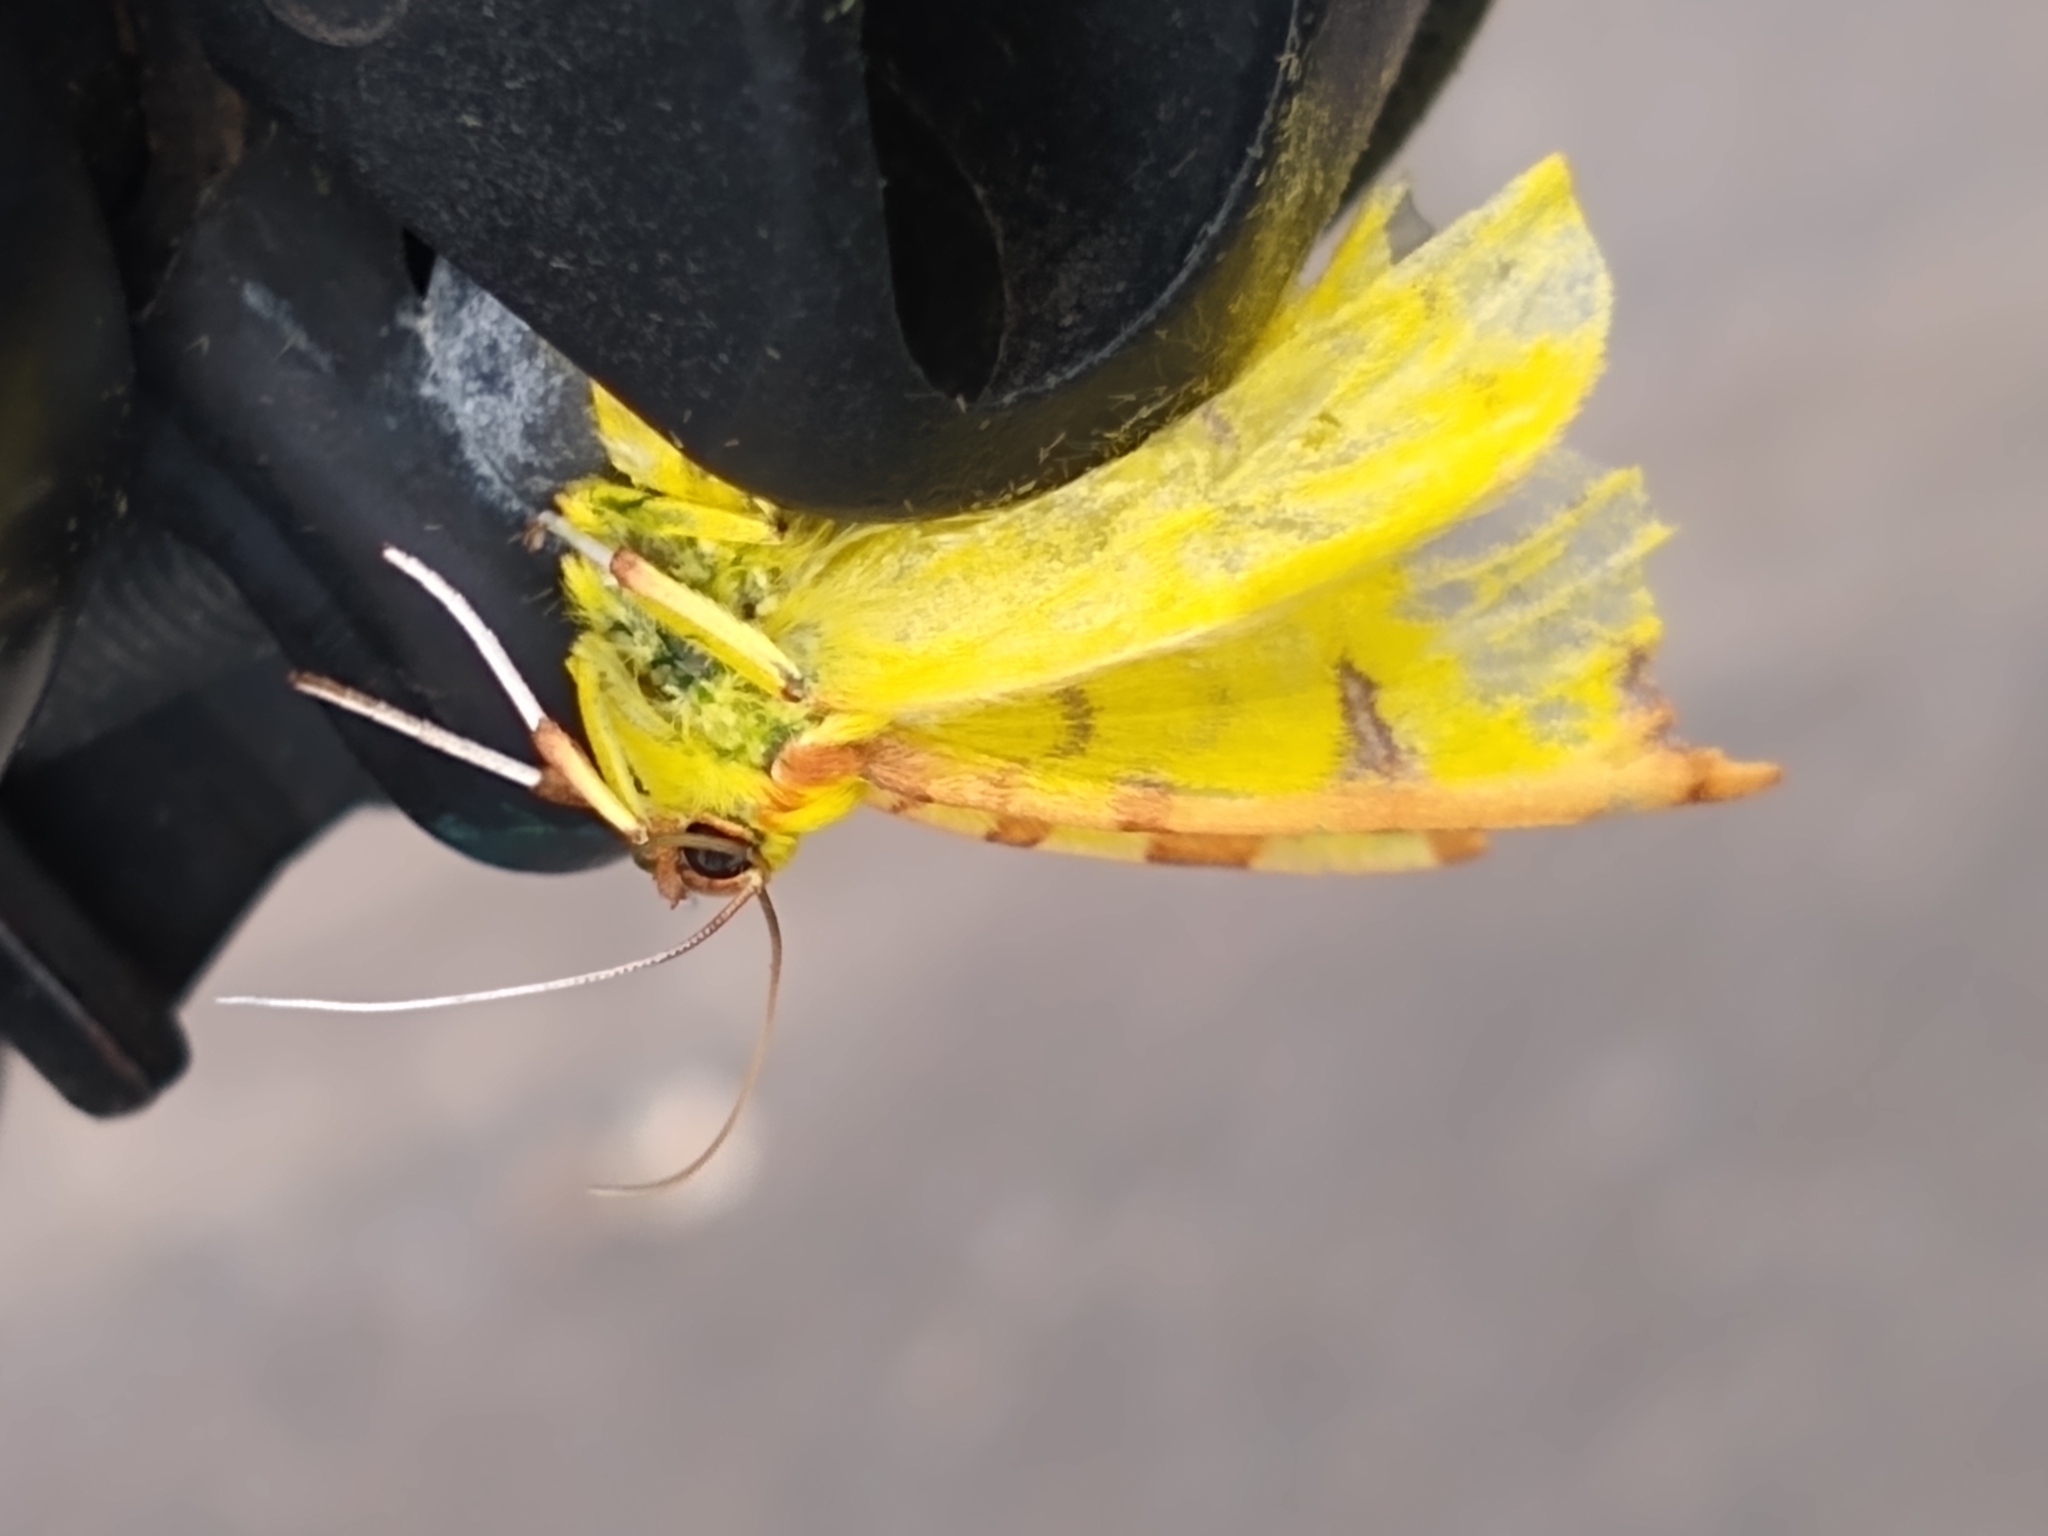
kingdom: Animalia
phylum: Arthropoda
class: Insecta
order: Lepidoptera
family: Geometridae
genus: Opisthograptis
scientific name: Opisthograptis luteolata
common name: Brimstone moth
